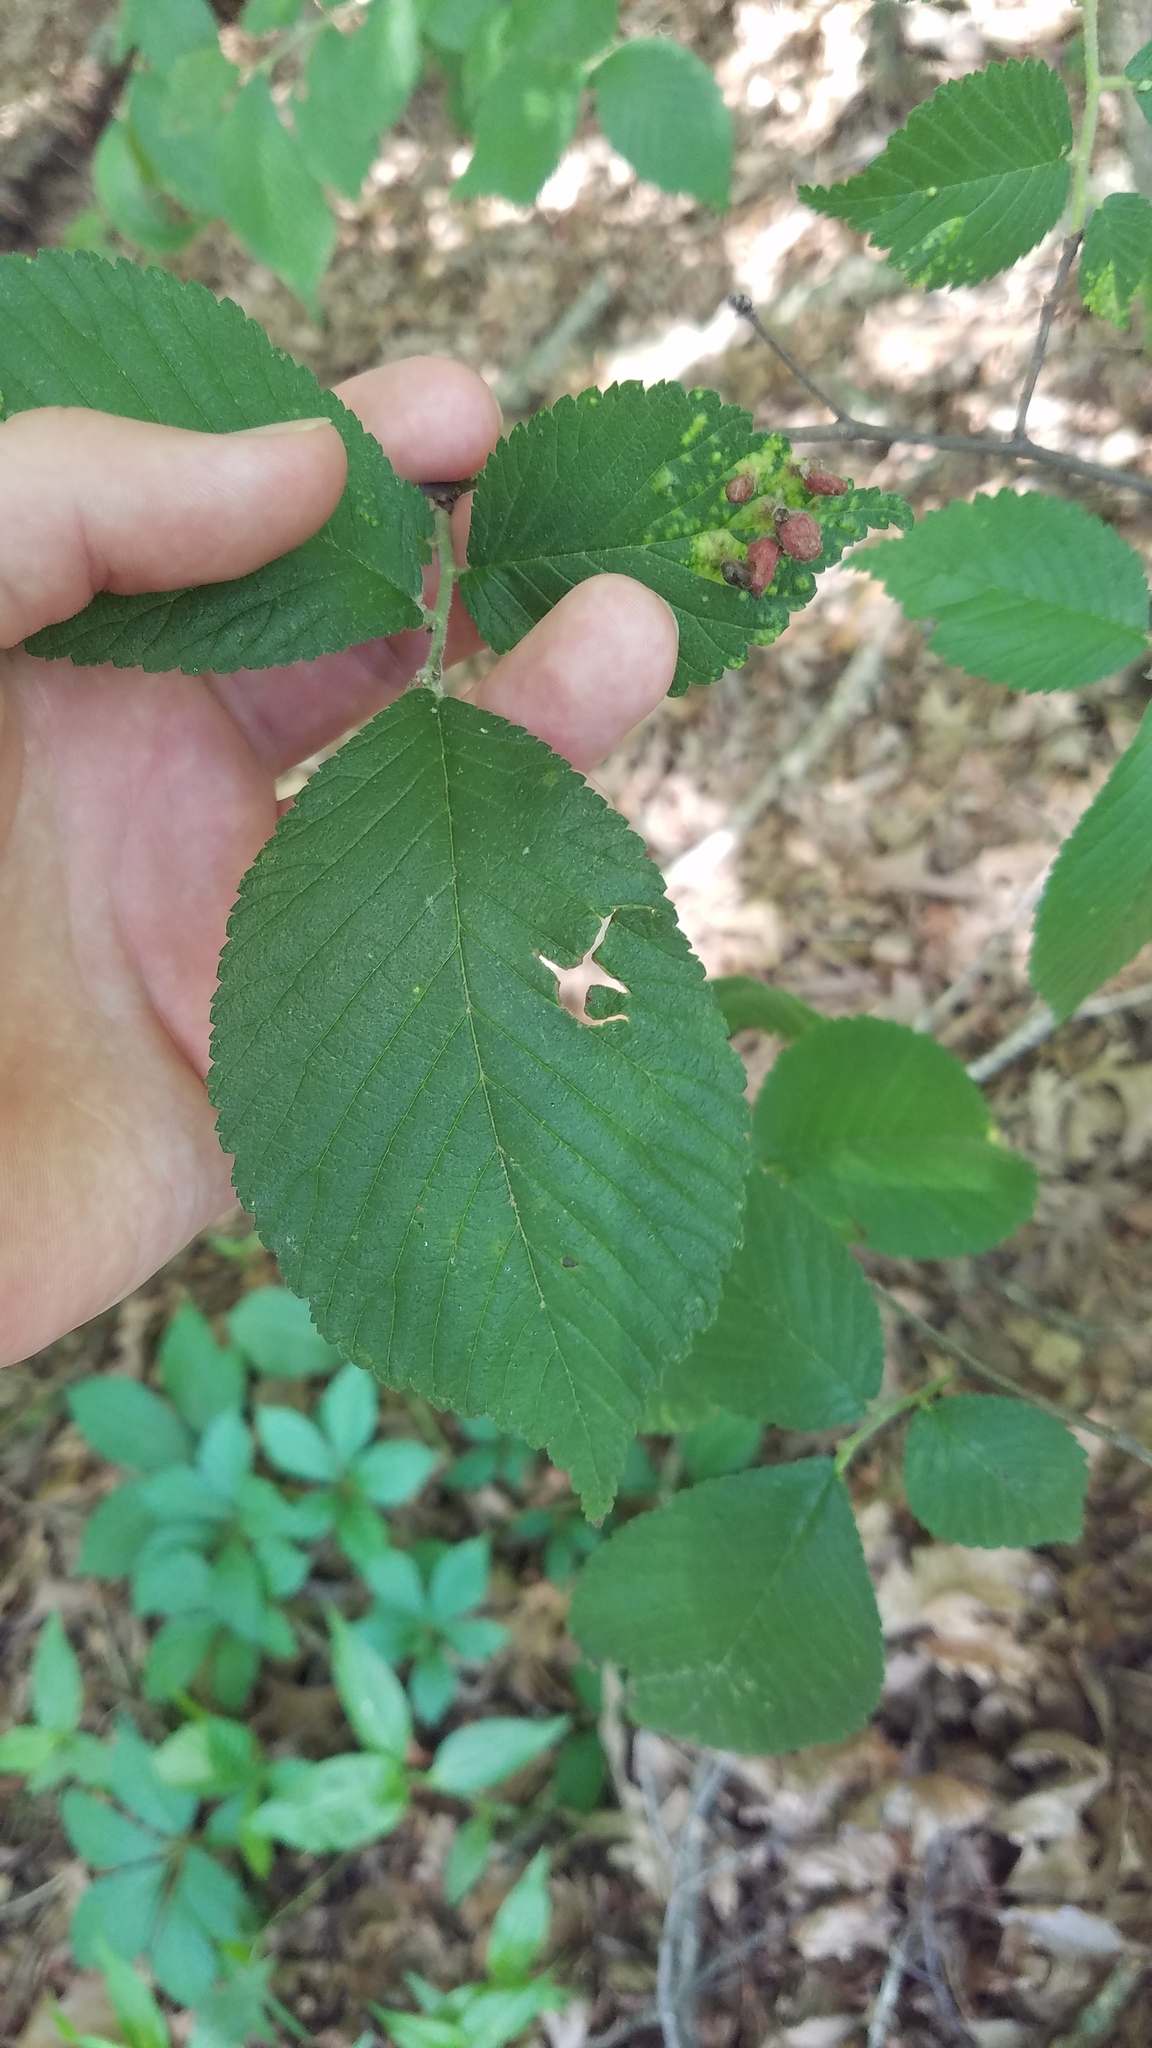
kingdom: Animalia
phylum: Arthropoda
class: Insecta
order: Hemiptera
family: Aphididae
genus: Tetraneura
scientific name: Tetraneura nigriabdominalis
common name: Aphid
